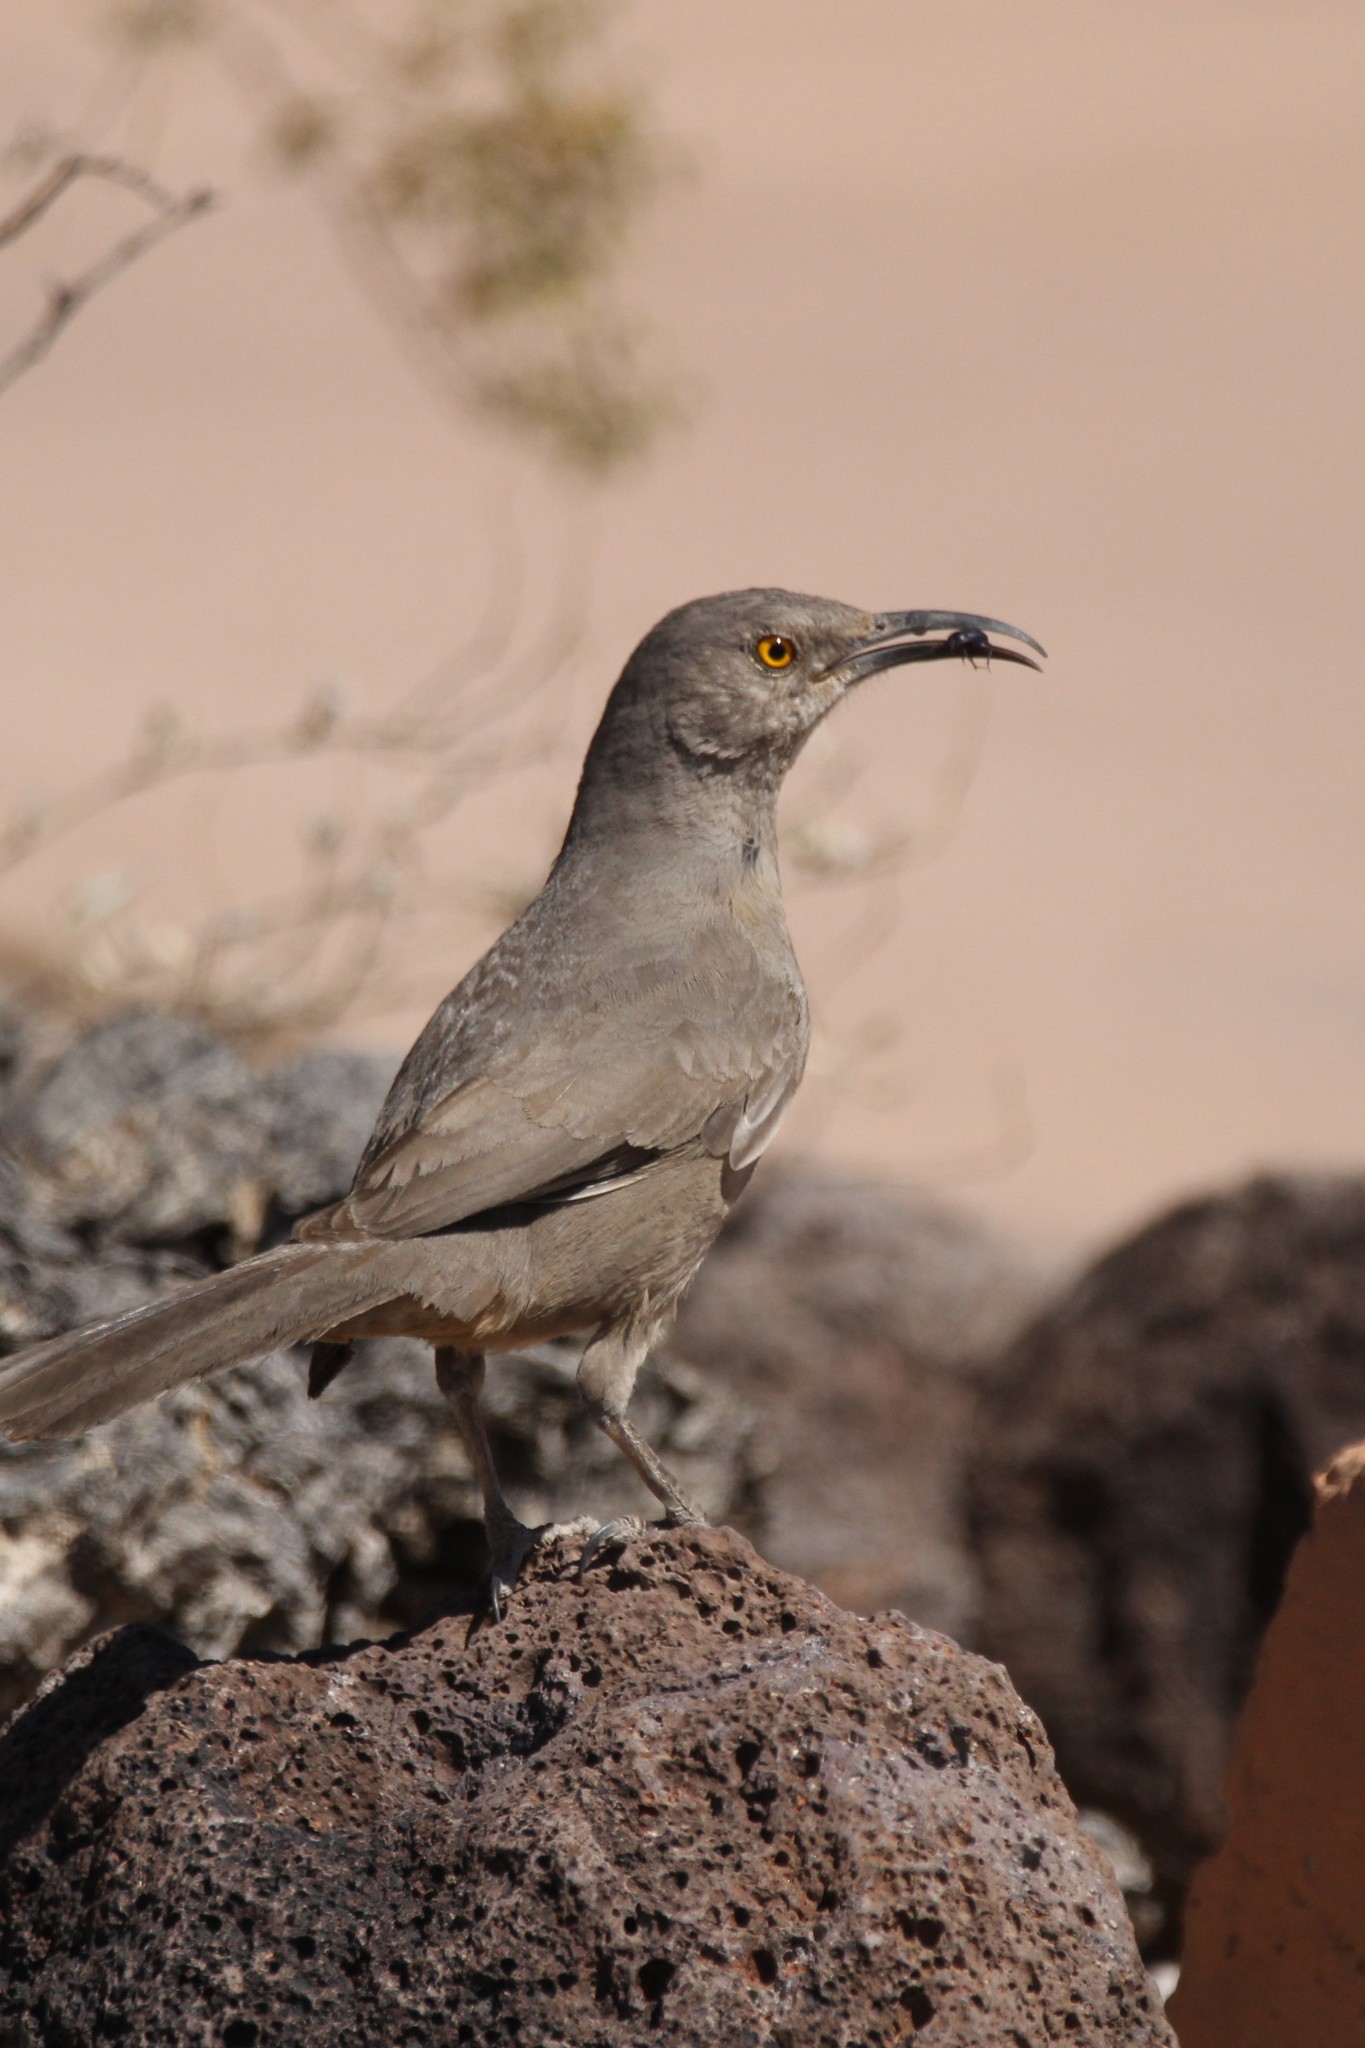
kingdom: Animalia
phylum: Chordata
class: Aves
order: Passeriformes
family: Mimidae
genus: Toxostoma
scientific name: Toxostoma curvirostre
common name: Curve-billed thrasher
